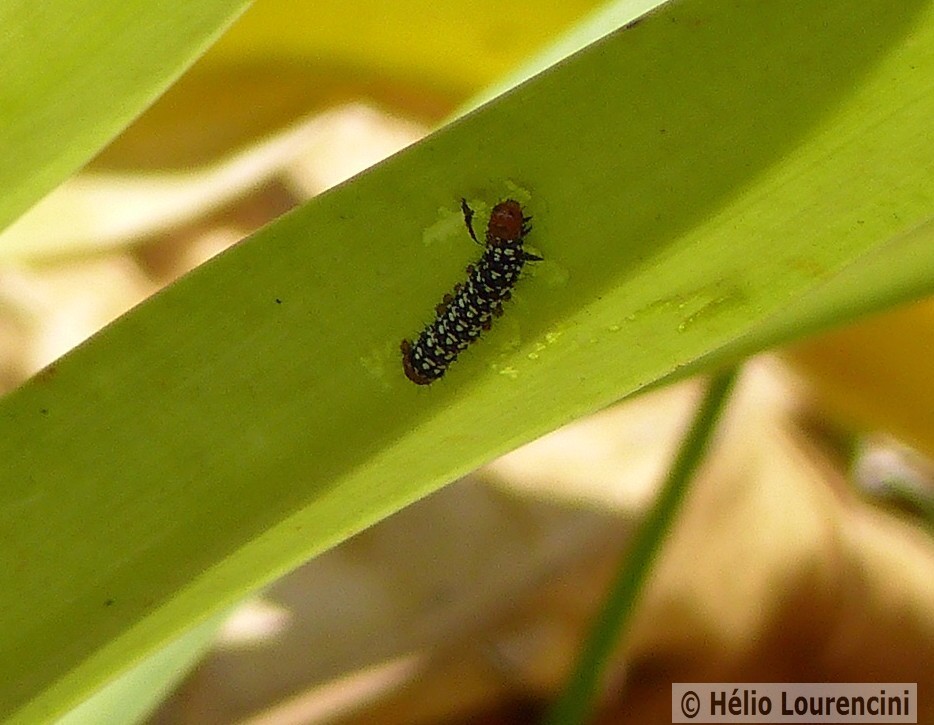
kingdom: Animalia
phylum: Arthropoda
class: Insecta
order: Lepidoptera
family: Noctuidae
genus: Xanthopastis
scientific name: Xanthopastis timais
